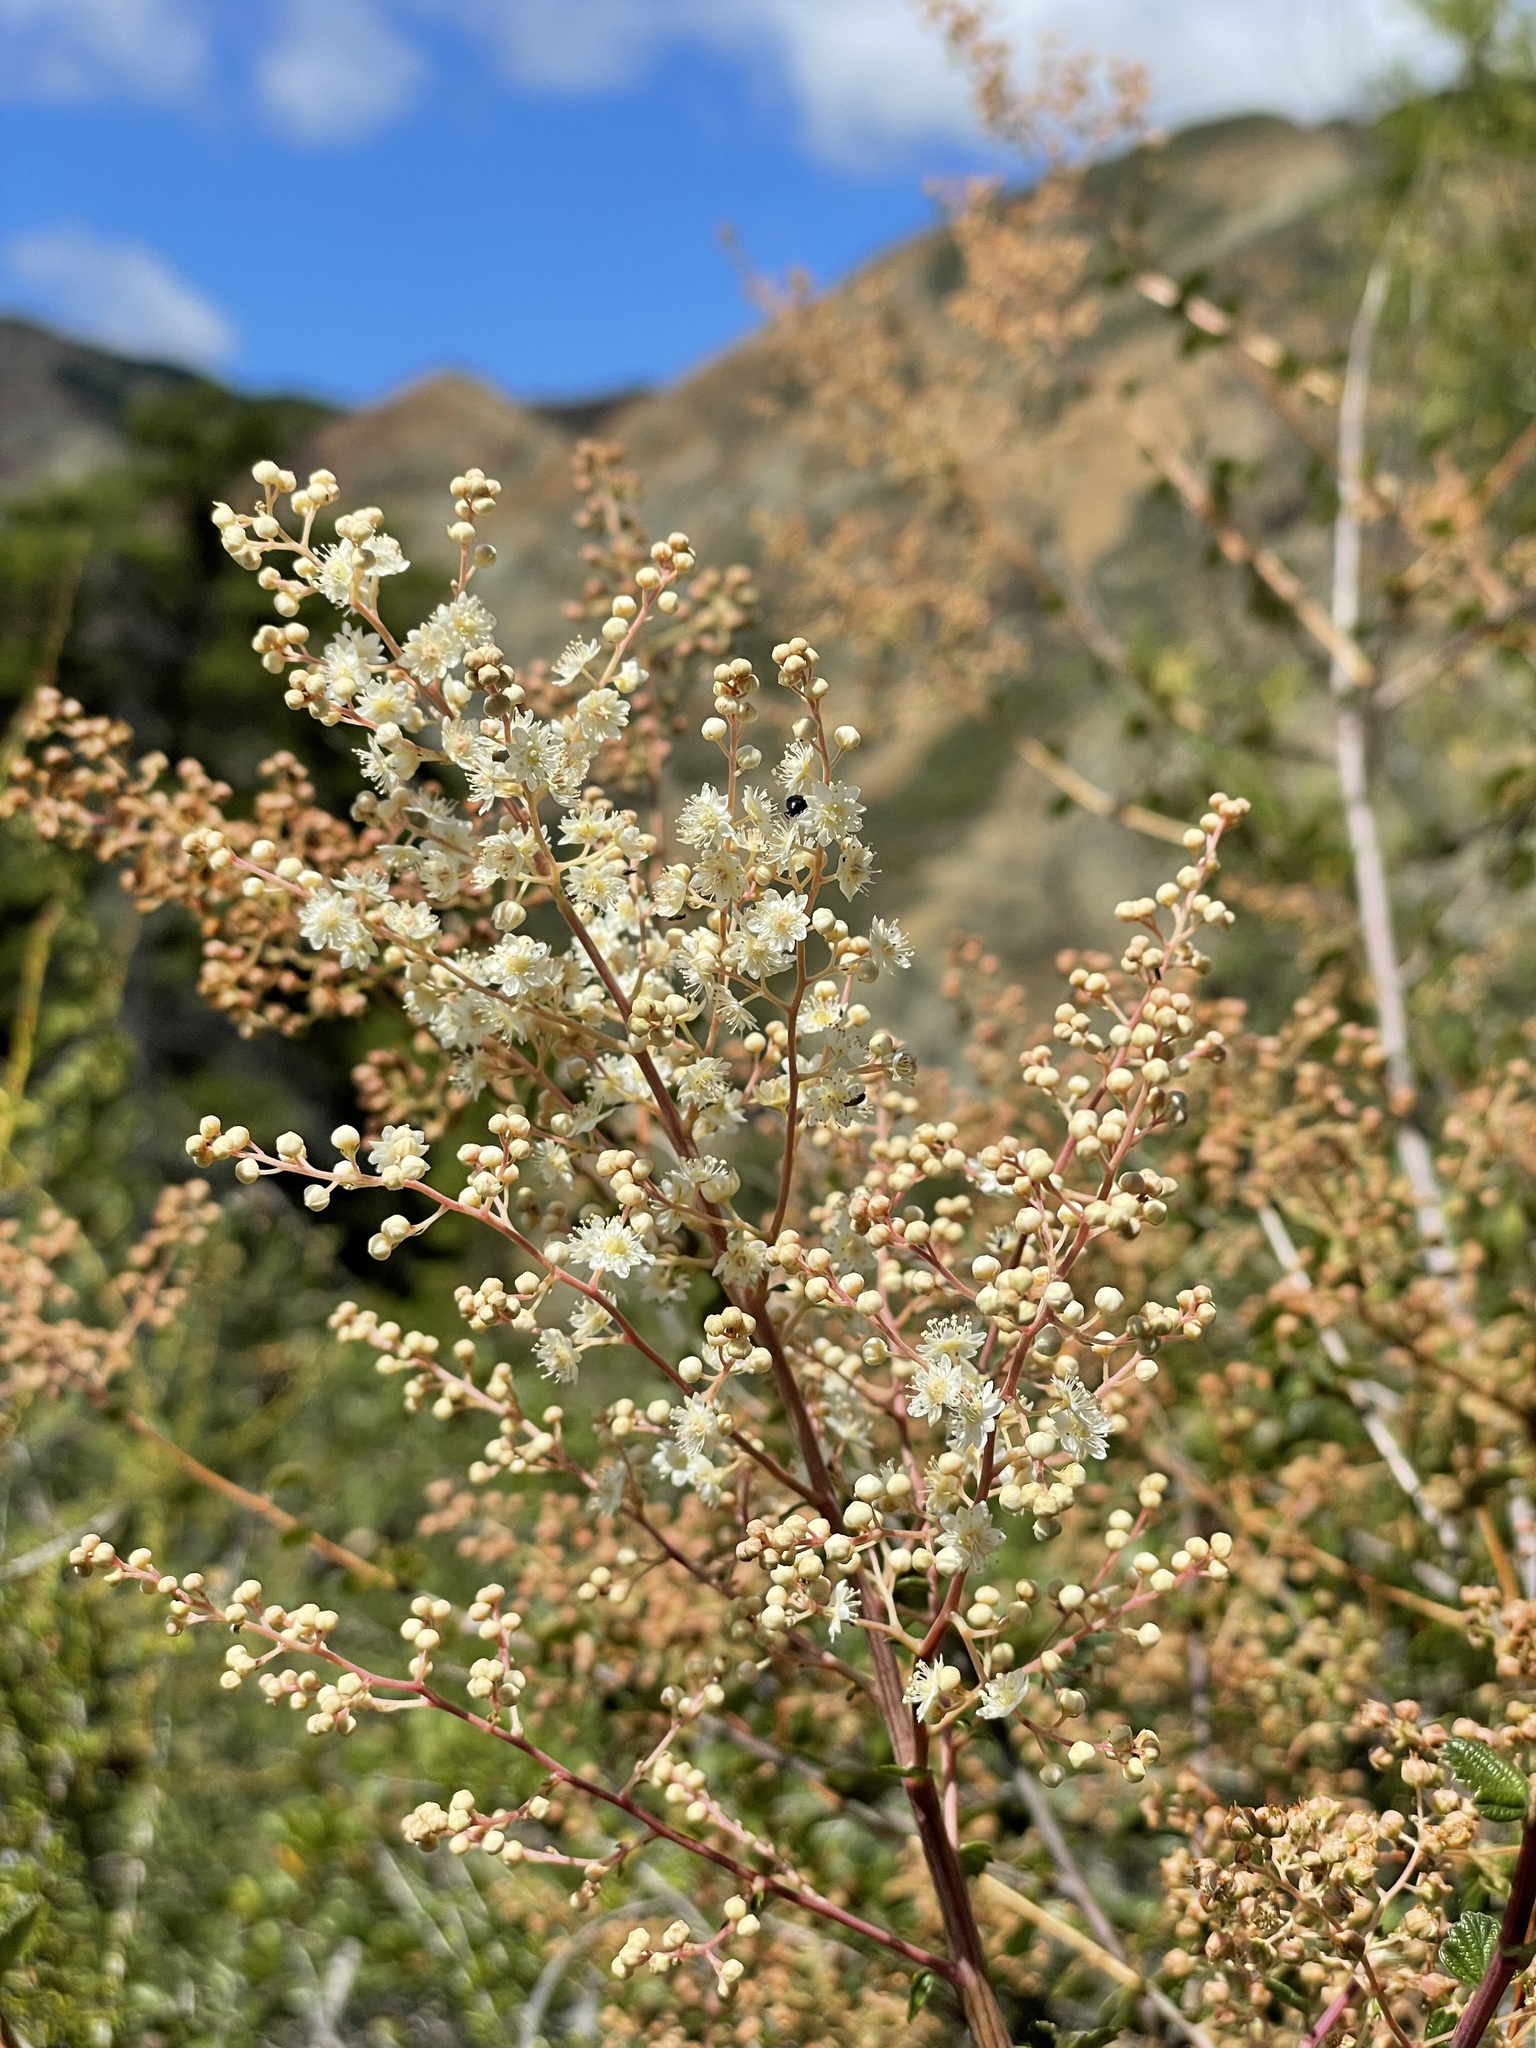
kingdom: Plantae
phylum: Tracheophyta
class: Magnoliopsida
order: Rosales
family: Rosaceae
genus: Holodiscus
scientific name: Holodiscus discolor
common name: Oceanspray
